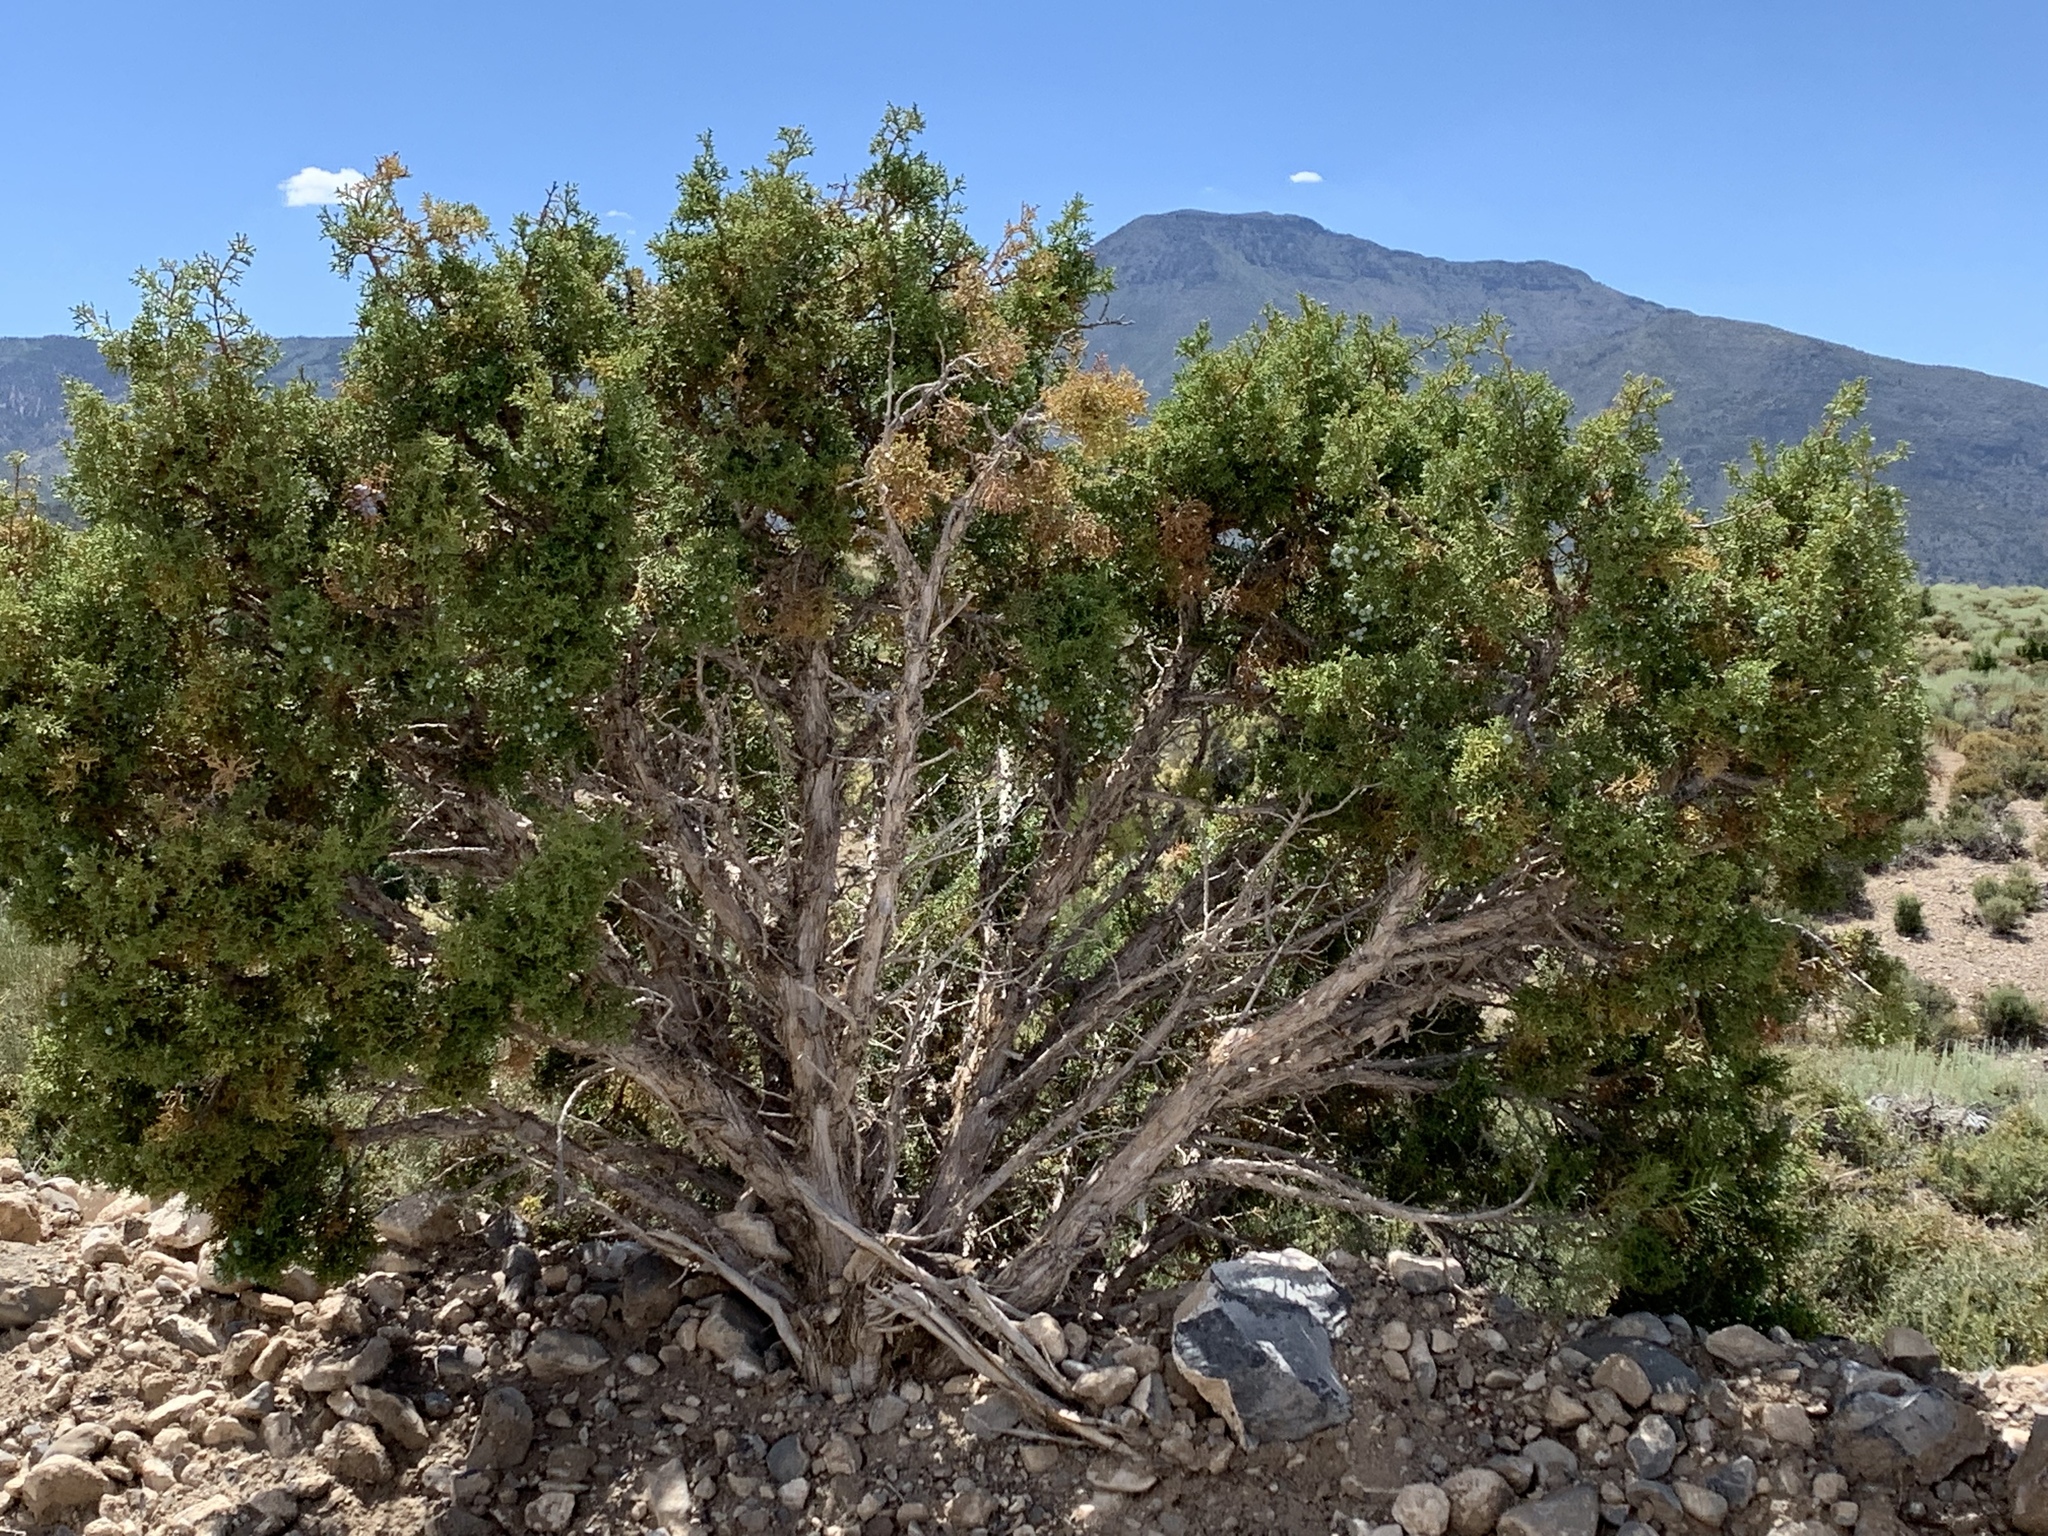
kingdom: Plantae
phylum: Tracheophyta
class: Pinopsida
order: Pinales
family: Cupressaceae
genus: Juniperus
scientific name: Juniperus osteosperma
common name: Utah juniper
